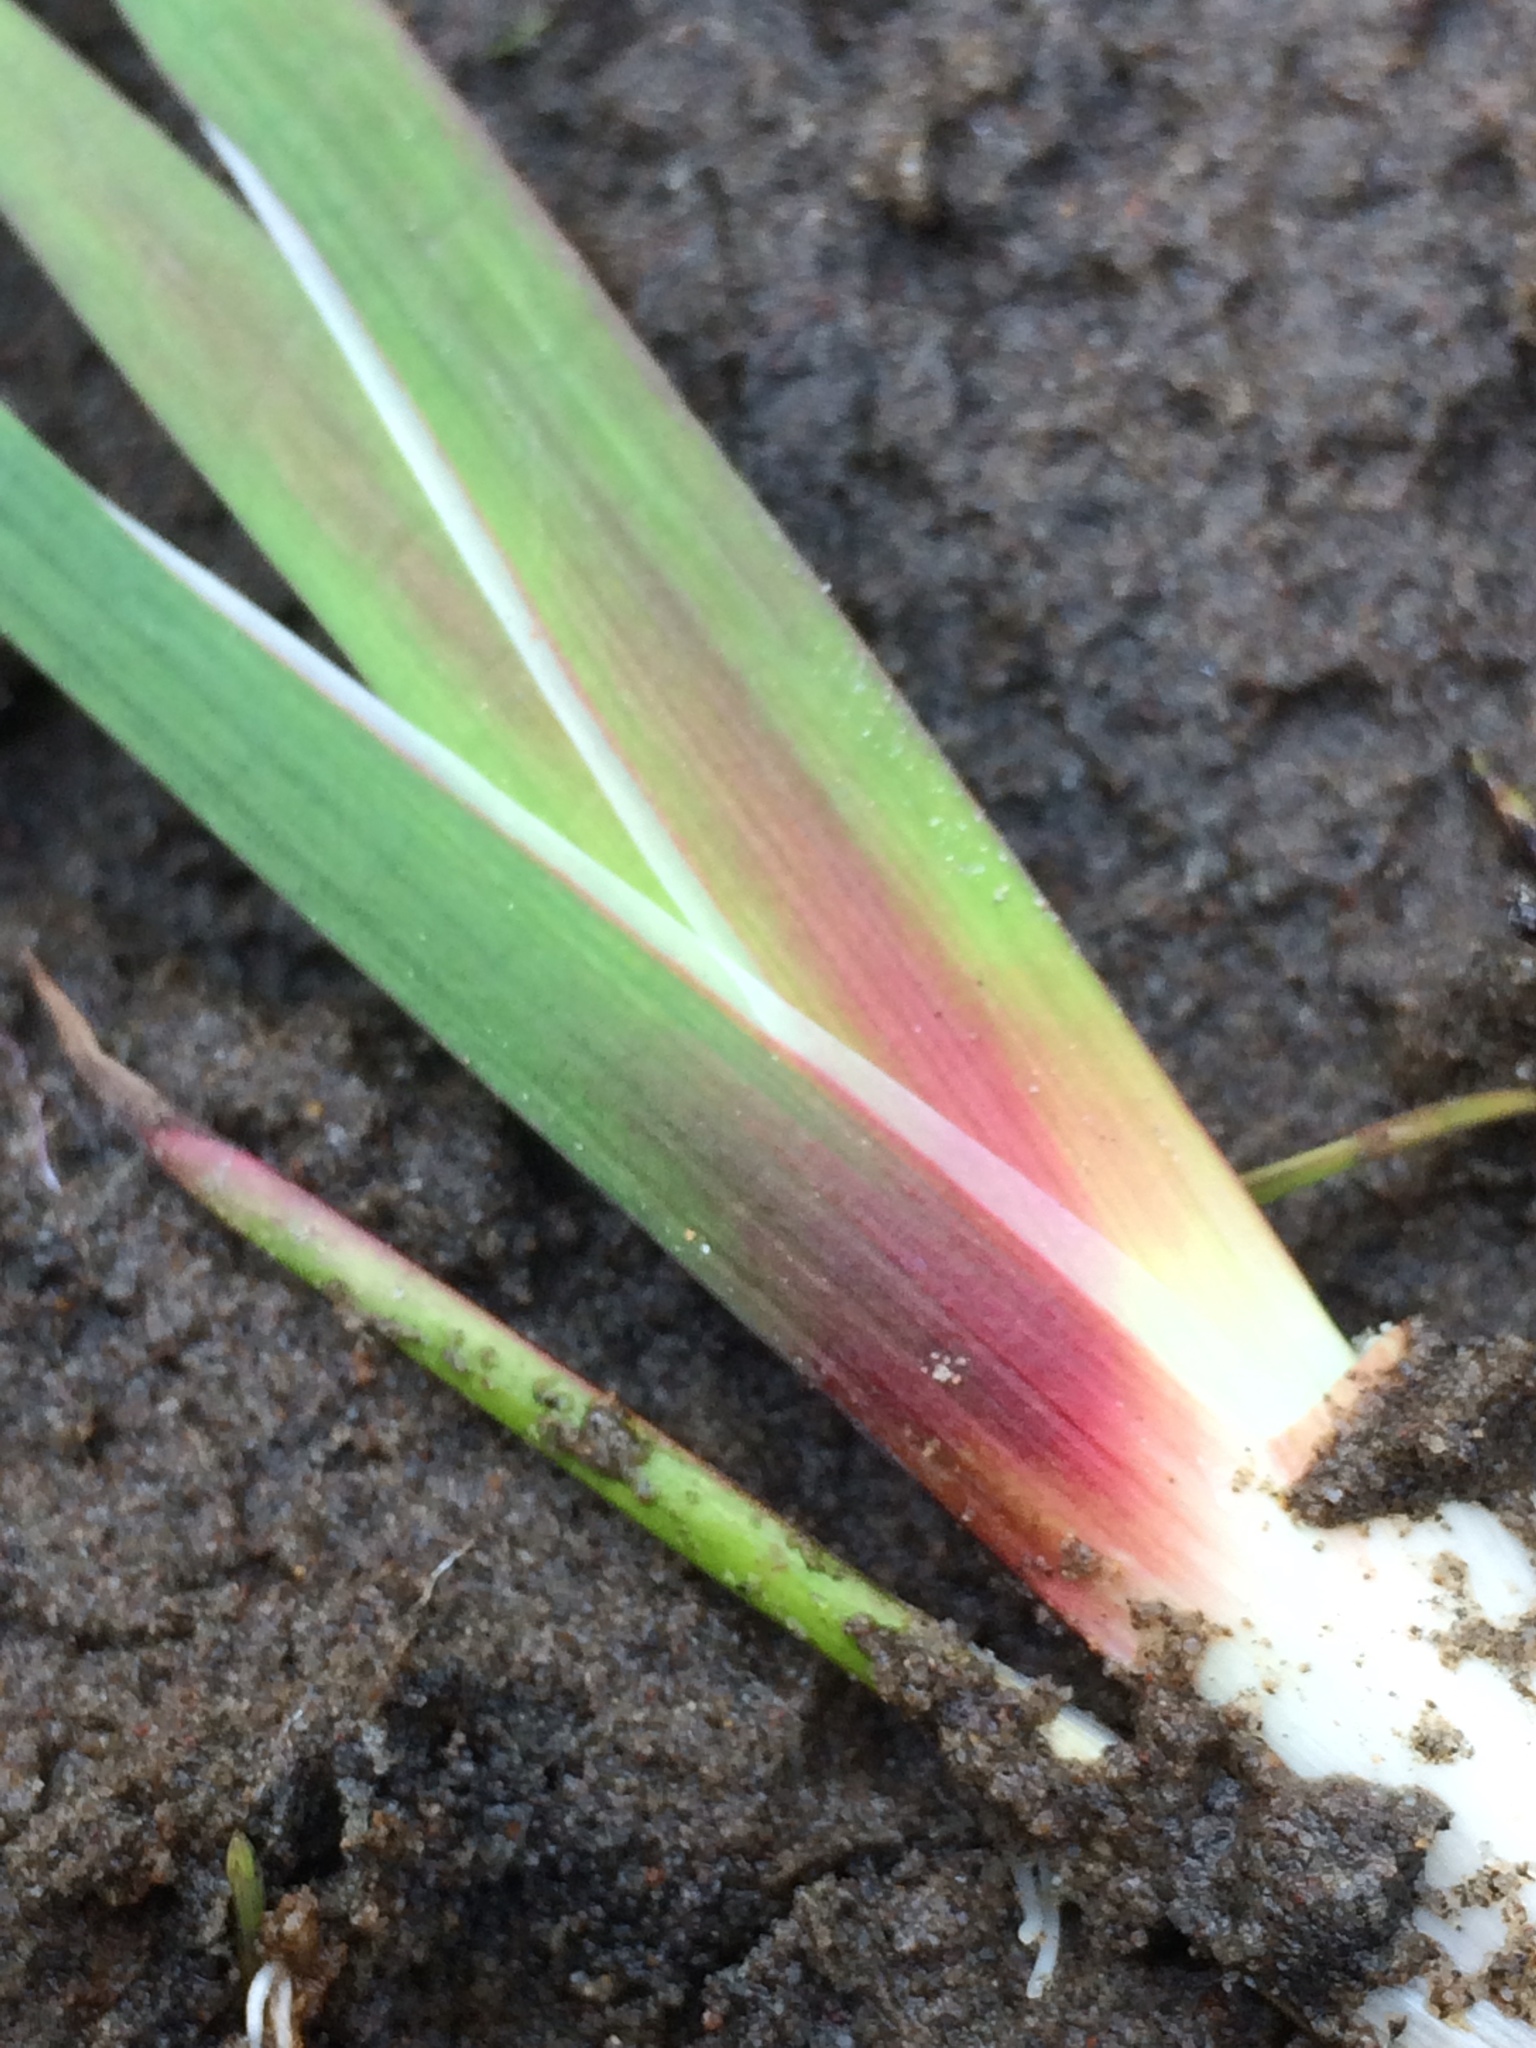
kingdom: Plantae
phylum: Tracheophyta
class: Liliopsida
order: Poales
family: Juncaceae
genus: Juncus
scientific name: Juncus ensifolius
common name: Sword-leaved rush
